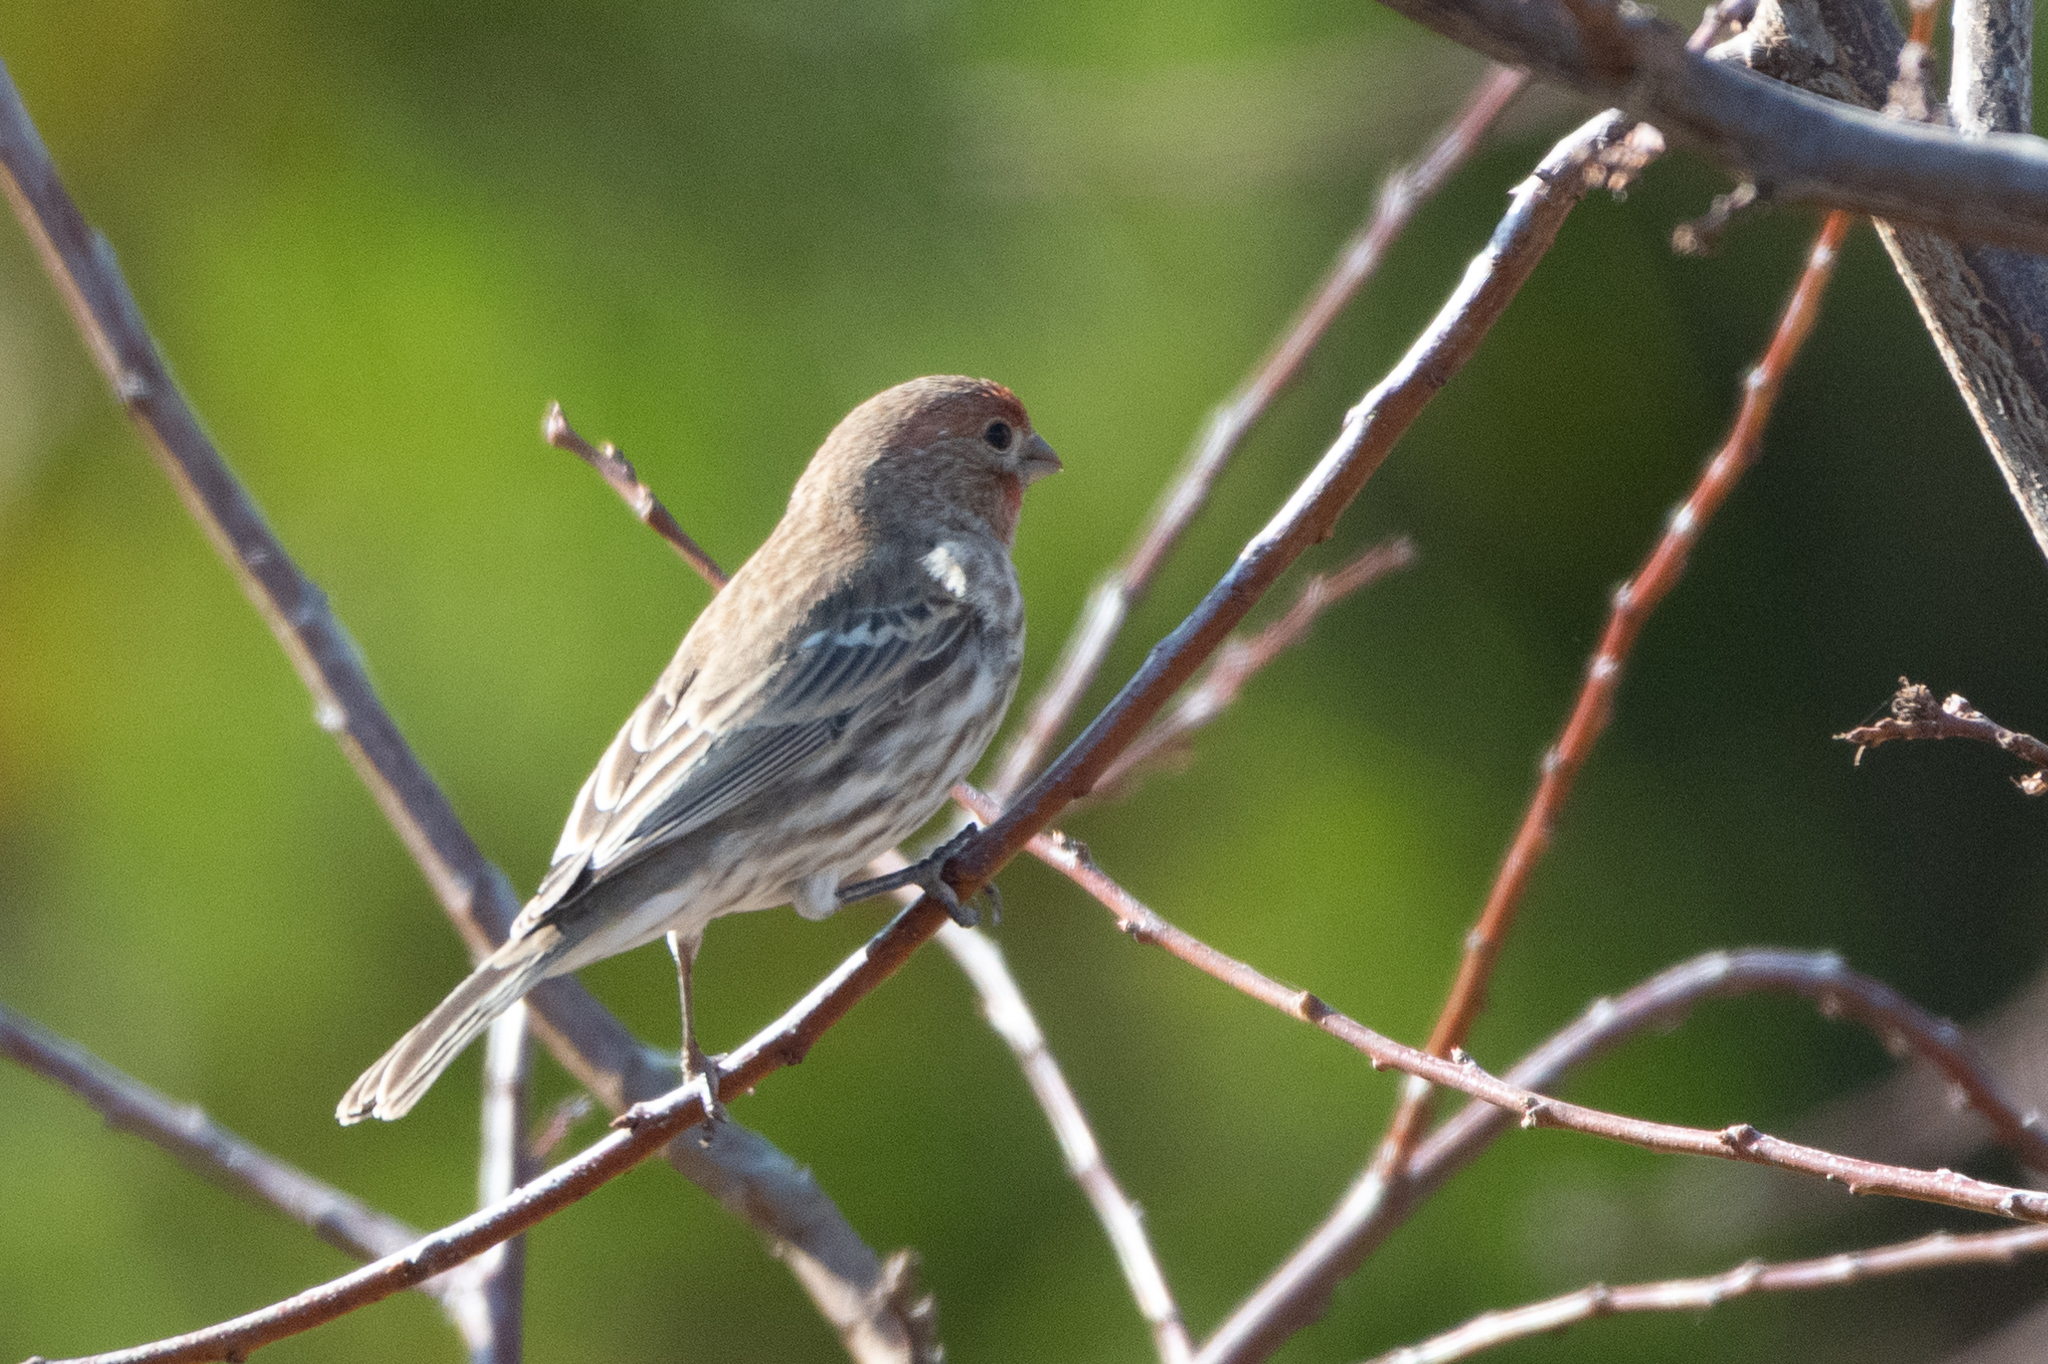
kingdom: Animalia
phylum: Chordata
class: Aves
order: Passeriformes
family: Fringillidae
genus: Haemorhous
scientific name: Haemorhous mexicanus
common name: House finch
